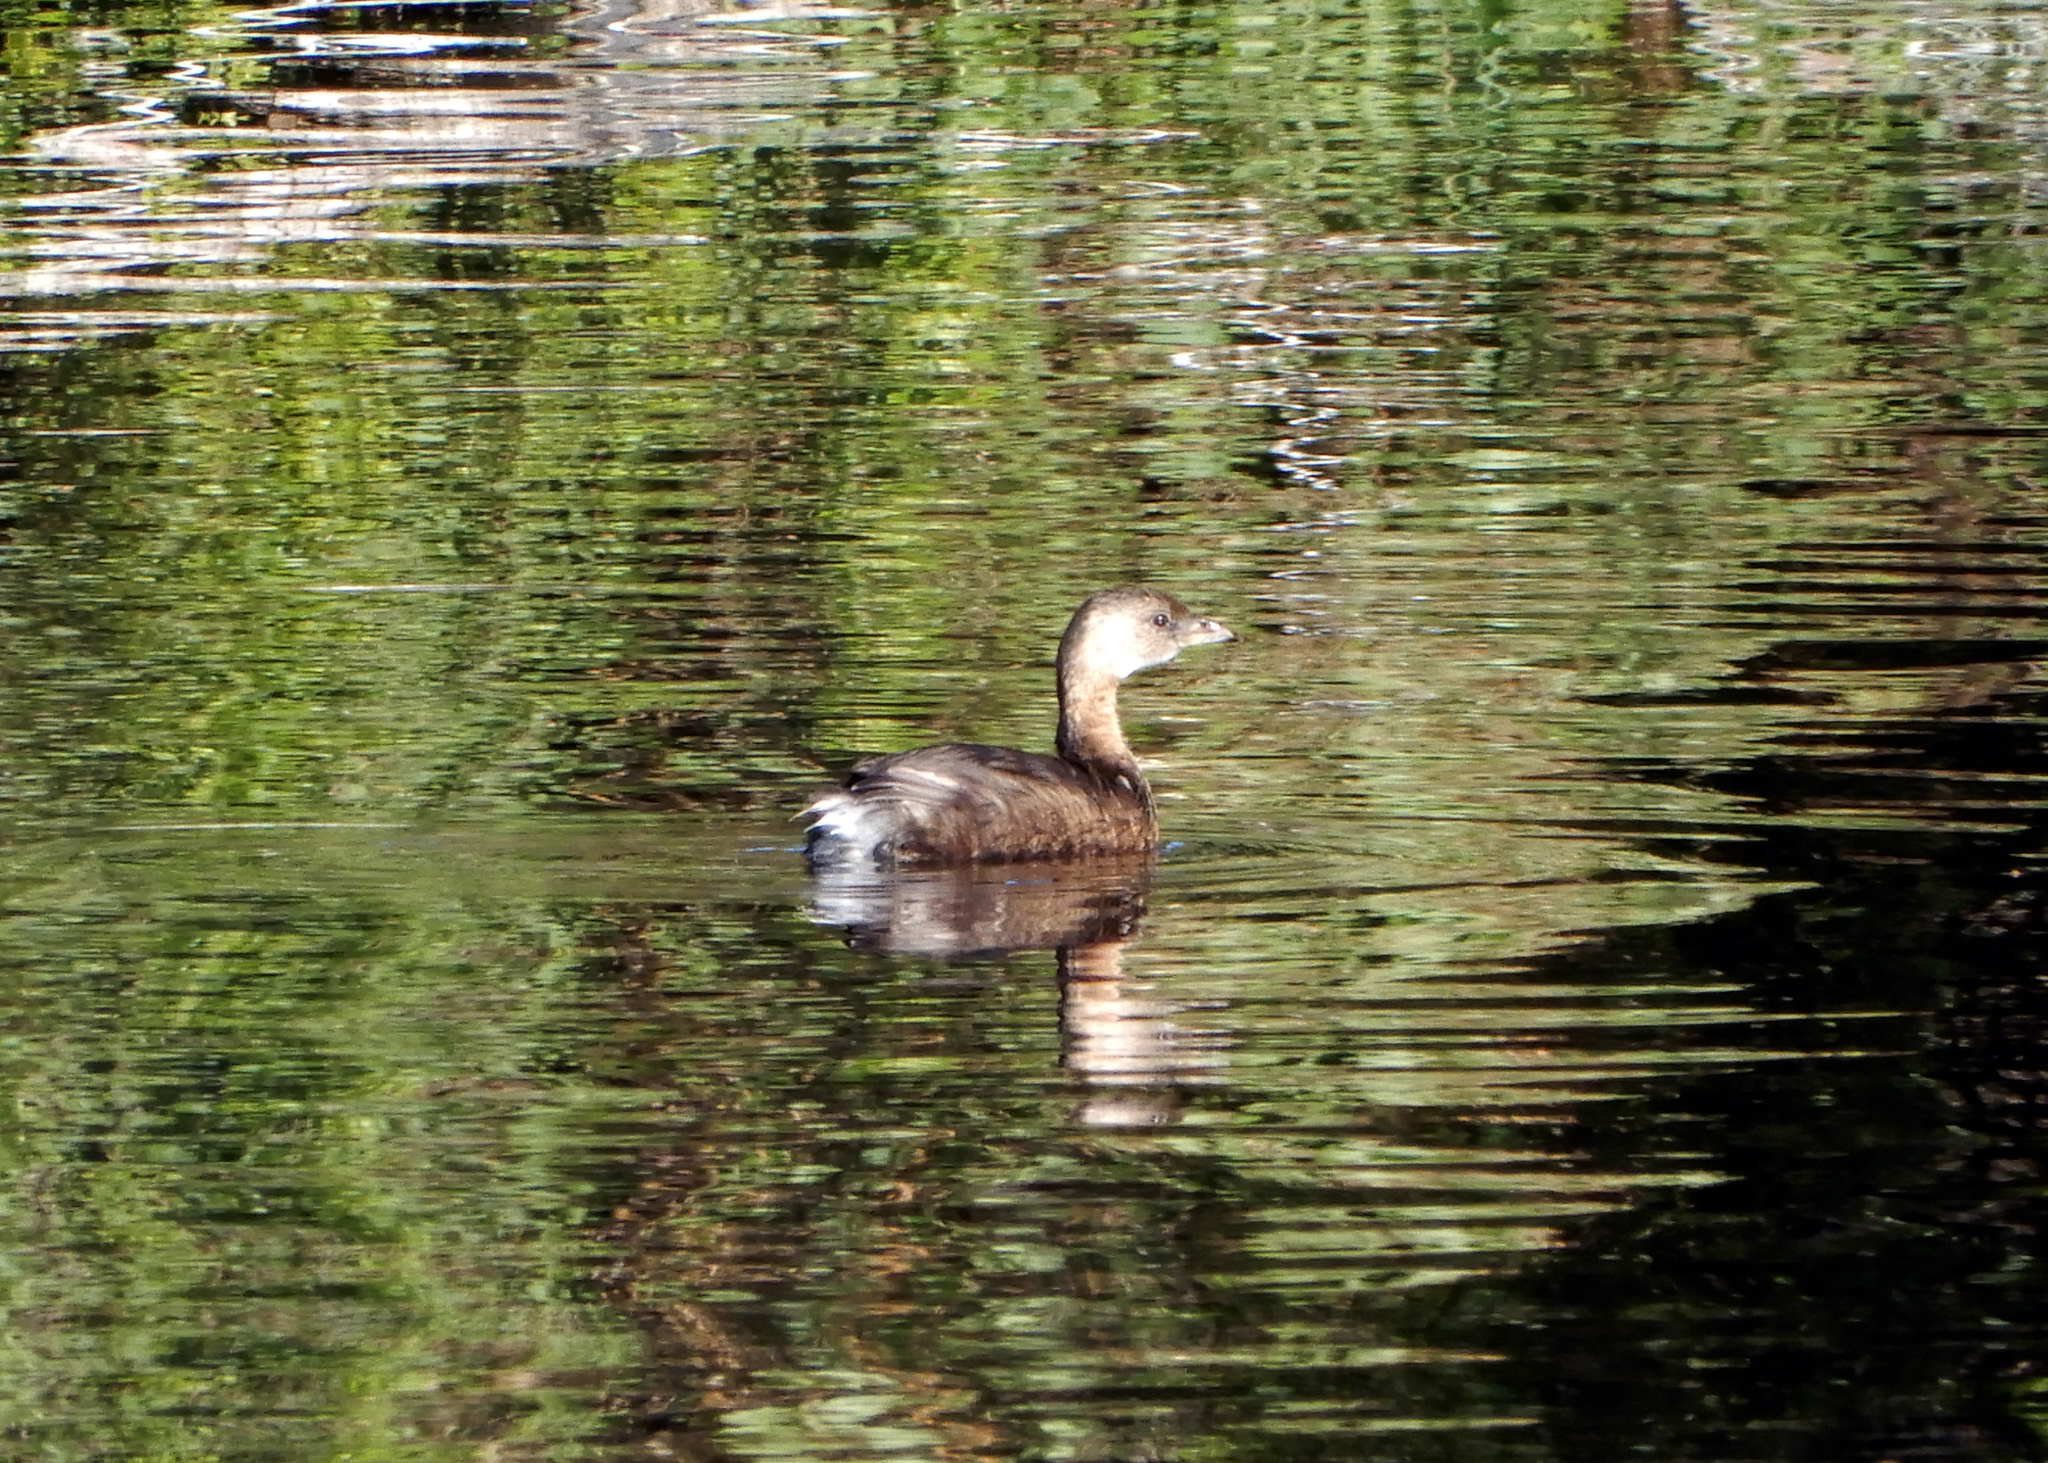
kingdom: Animalia
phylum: Chordata
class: Aves
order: Podicipediformes
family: Podicipedidae
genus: Podilymbus
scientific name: Podilymbus podiceps
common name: Pied-billed grebe
